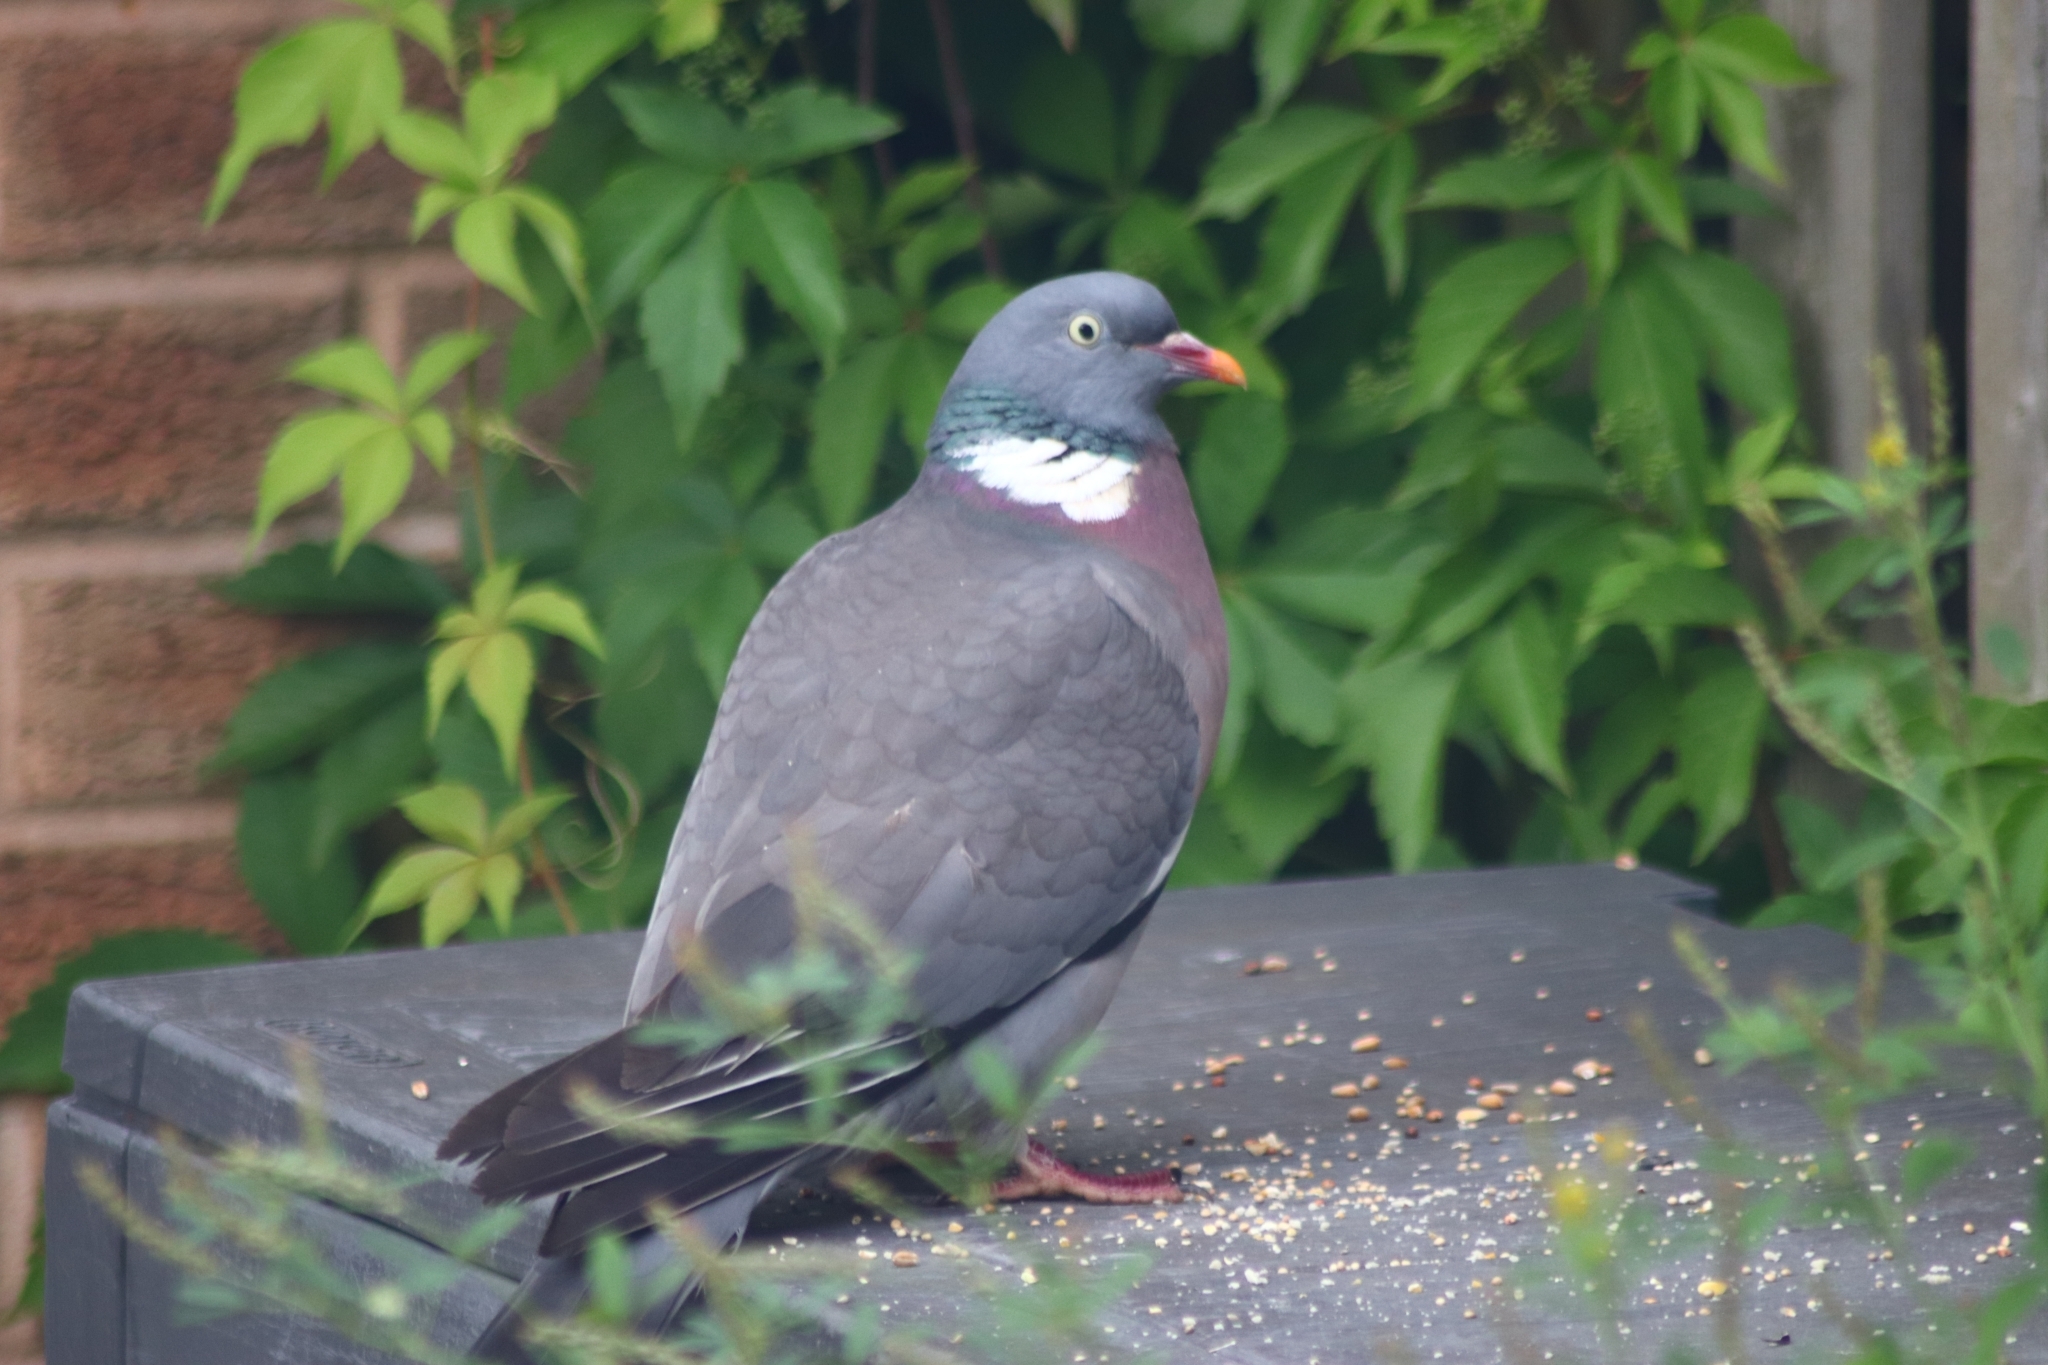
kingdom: Animalia
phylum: Chordata
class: Aves
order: Columbiformes
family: Columbidae
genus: Columba
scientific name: Columba palumbus
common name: Common wood pigeon
